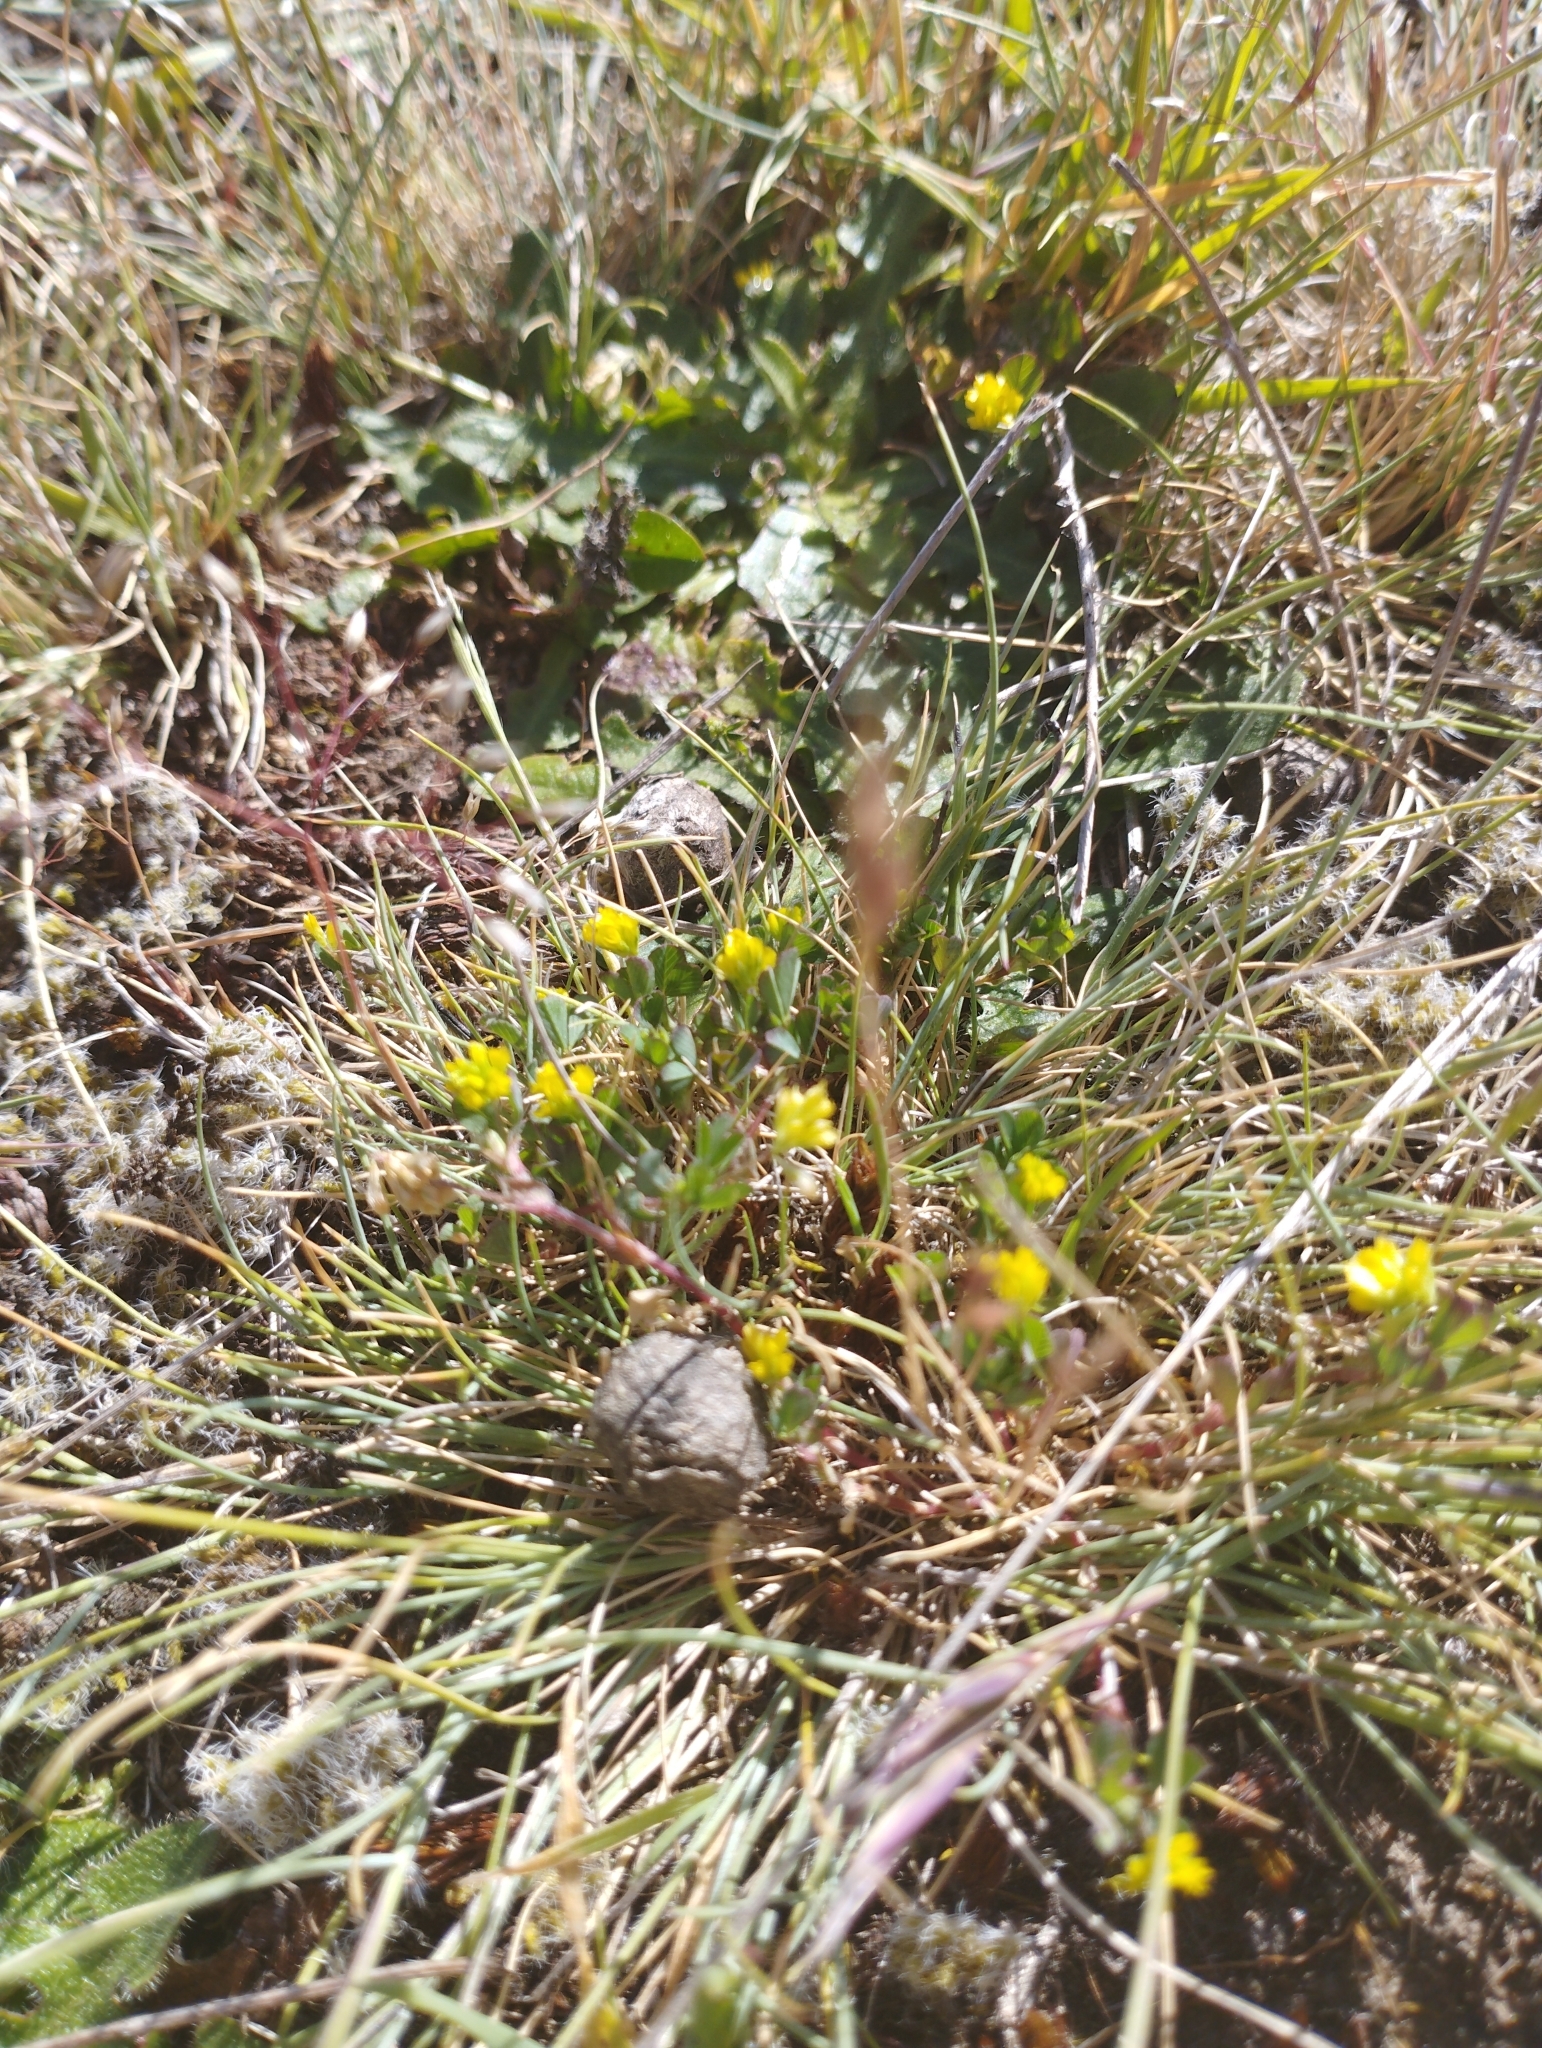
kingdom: Plantae
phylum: Tracheophyta
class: Magnoliopsida
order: Fabales
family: Fabaceae
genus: Trifolium
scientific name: Trifolium dubium
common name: Suckling clover
